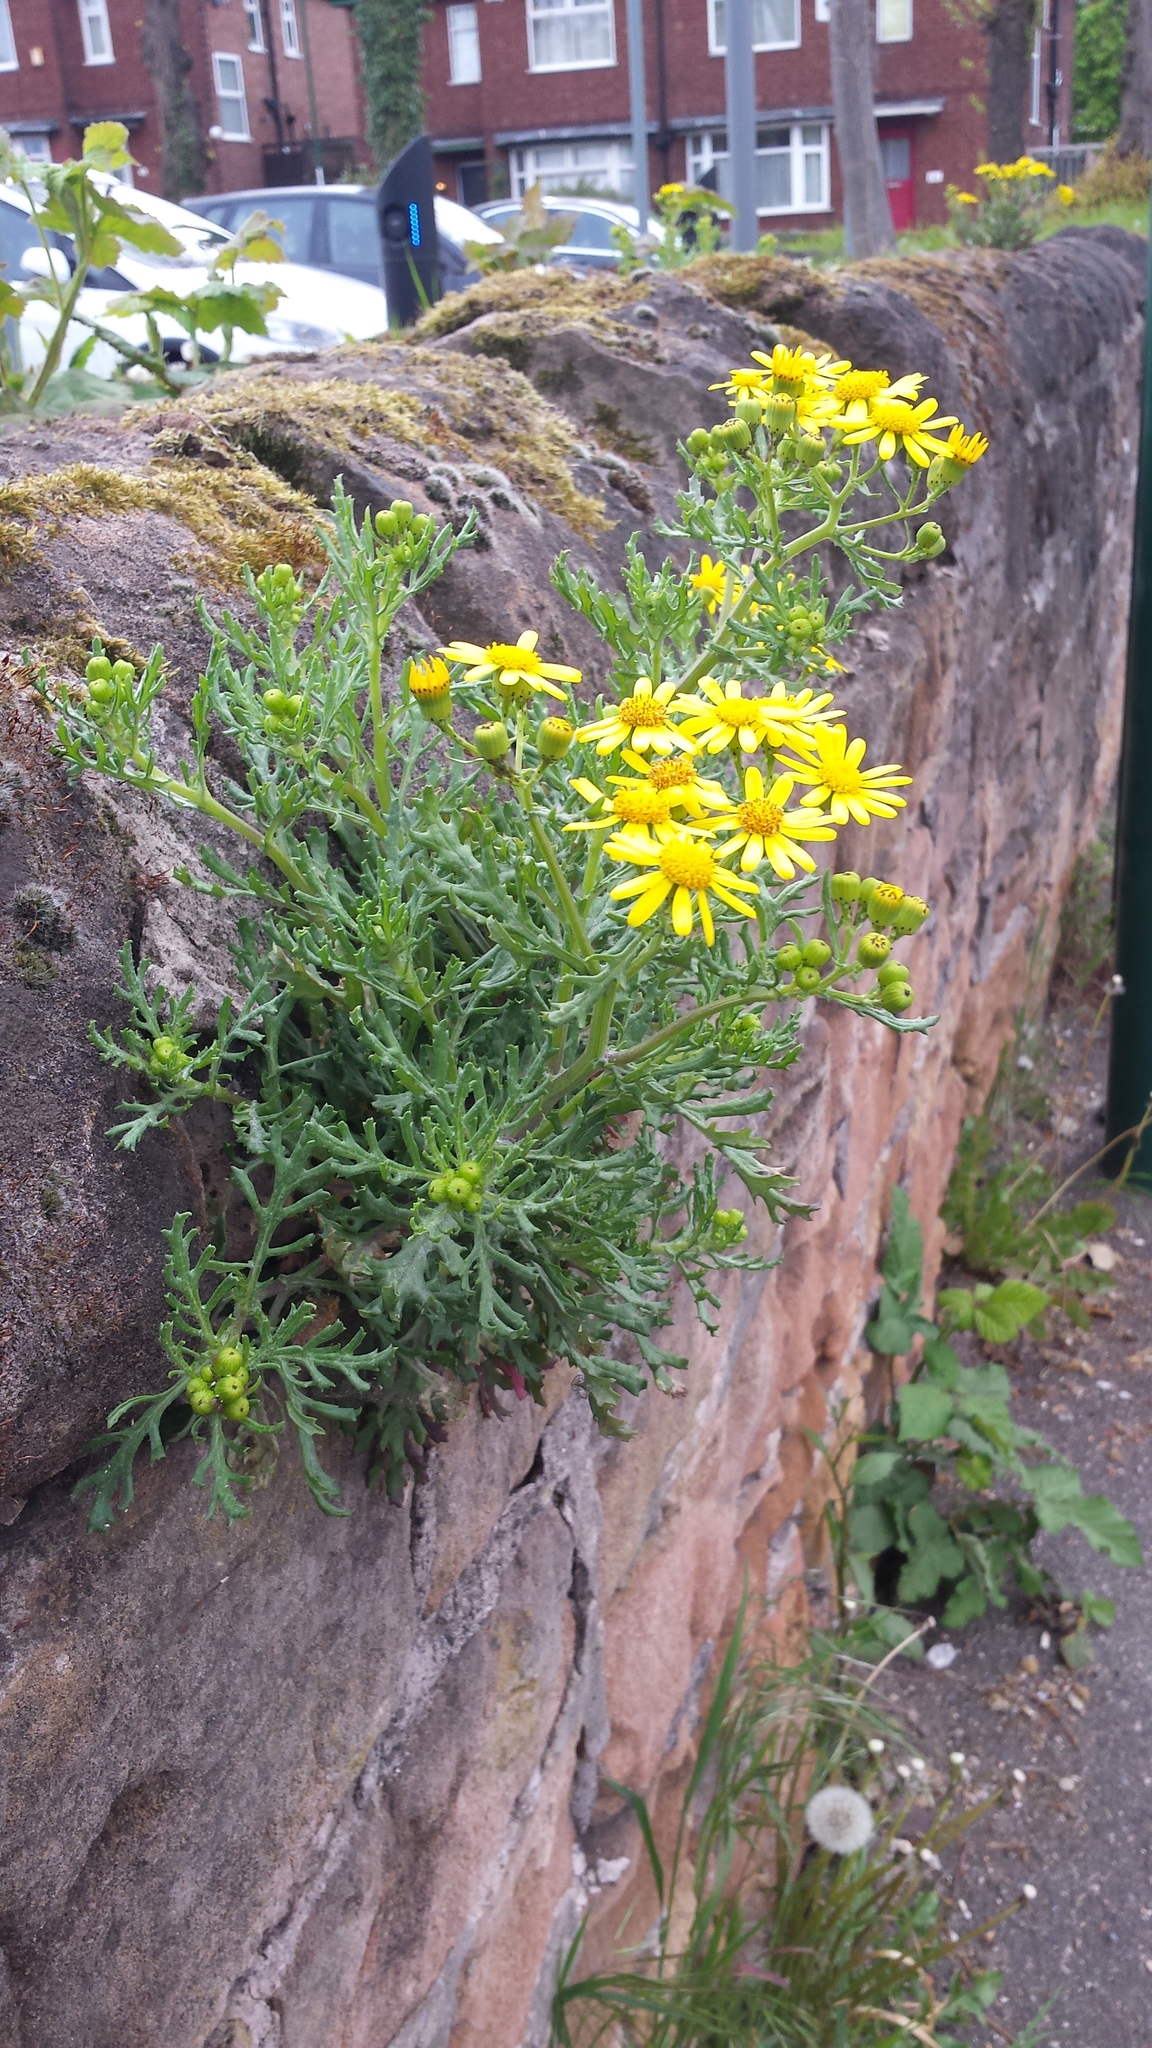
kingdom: Plantae
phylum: Tracheophyta
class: Magnoliopsida
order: Asterales
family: Asteraceae
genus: Senecio
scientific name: Senecio squalidus
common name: Oxford ragwort
